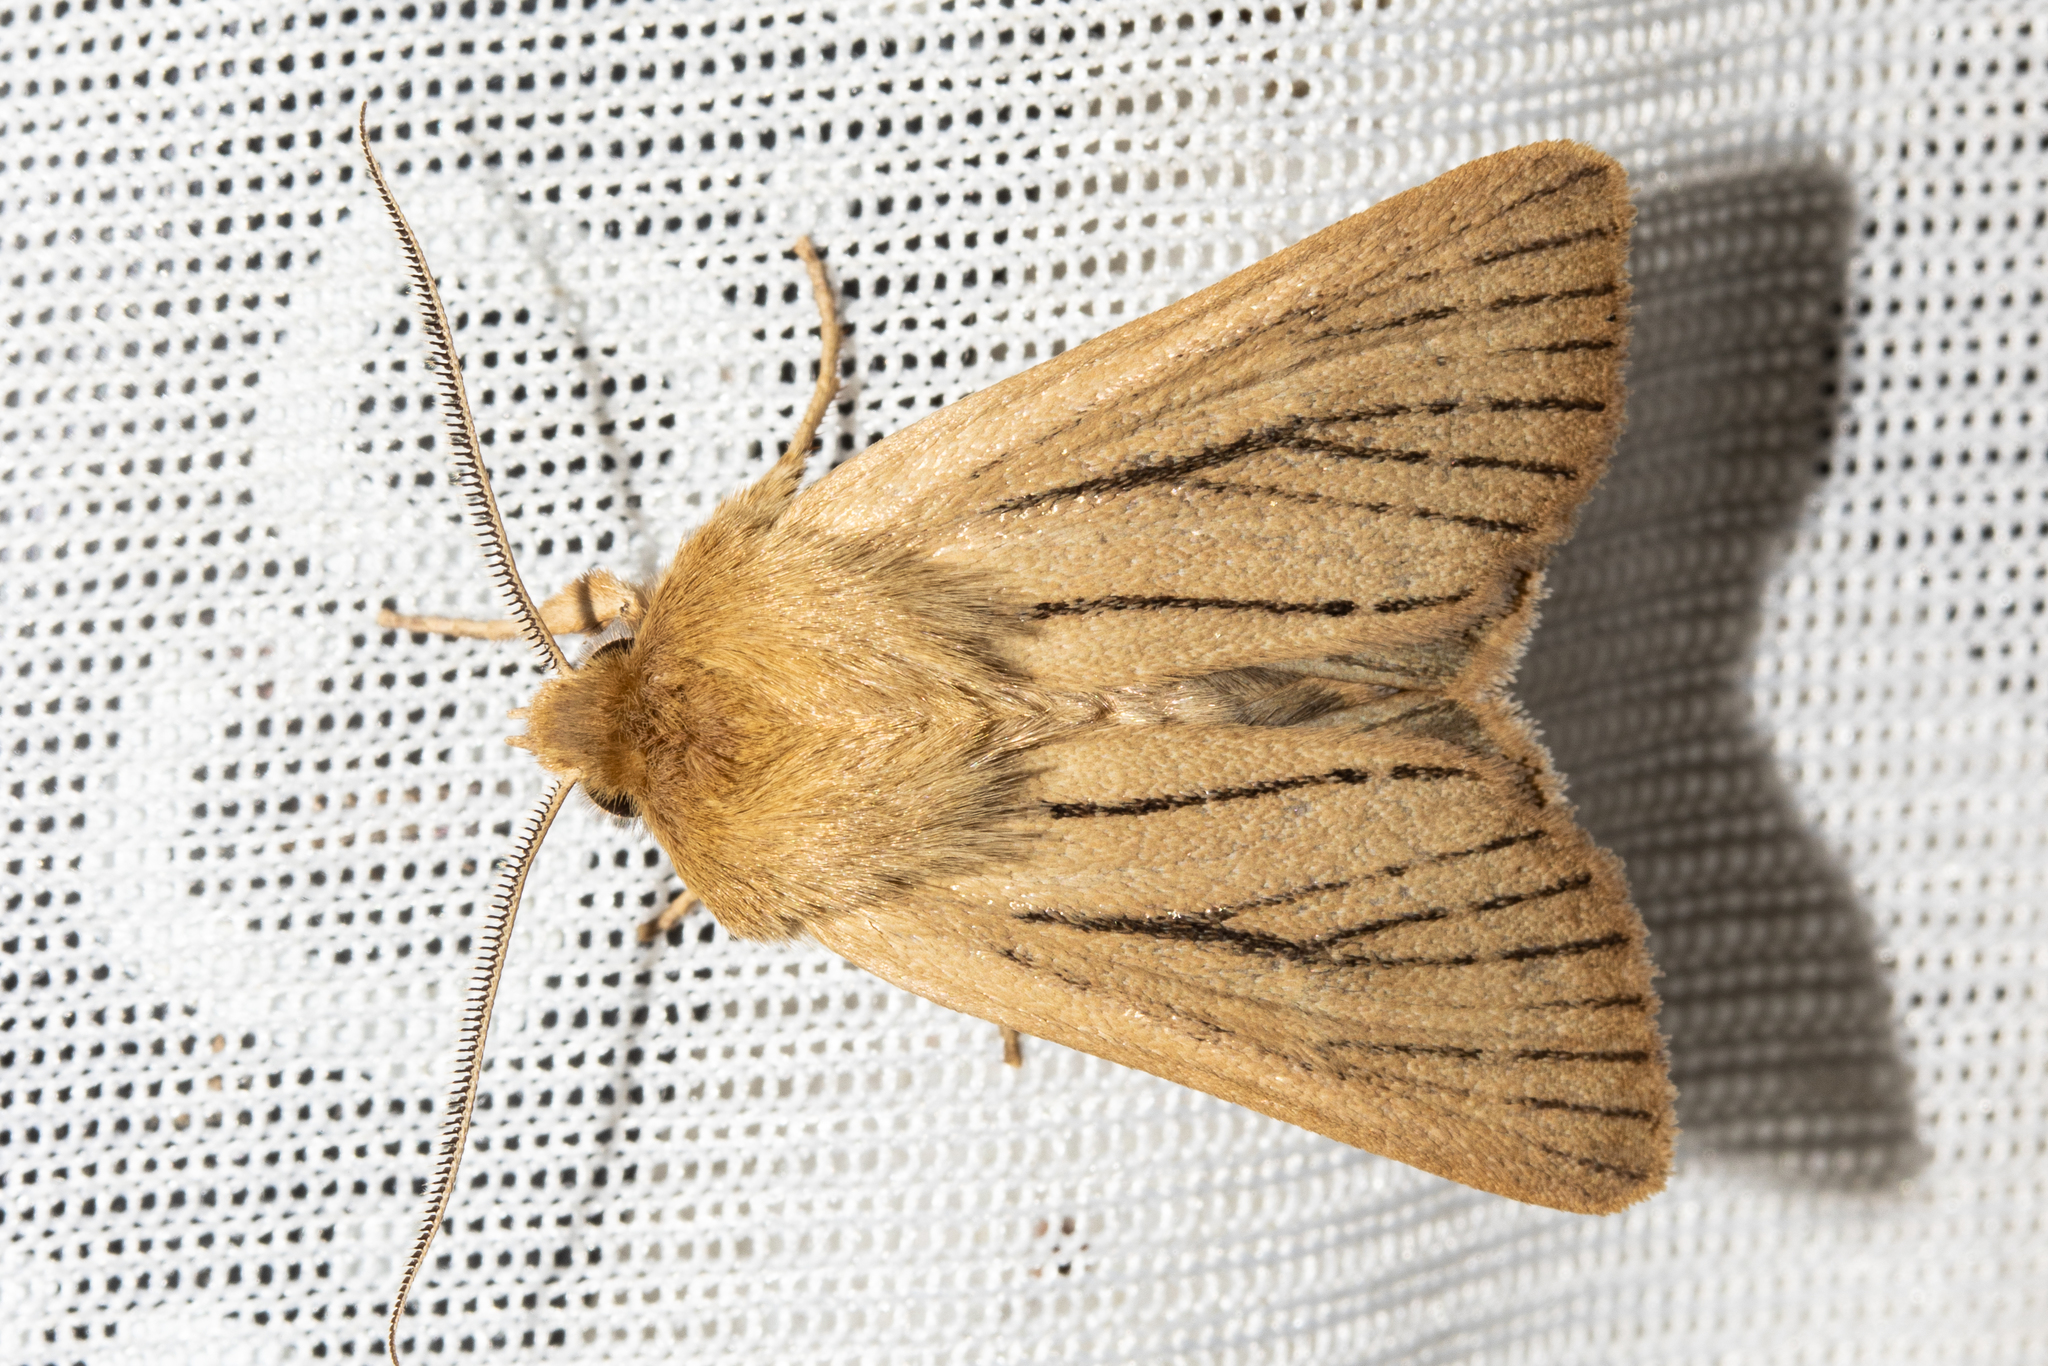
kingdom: Animalia
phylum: Arthropoda
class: Insecta
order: Lepidoptera
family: Noctuidae
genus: Ichneutica
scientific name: Ichneutica
